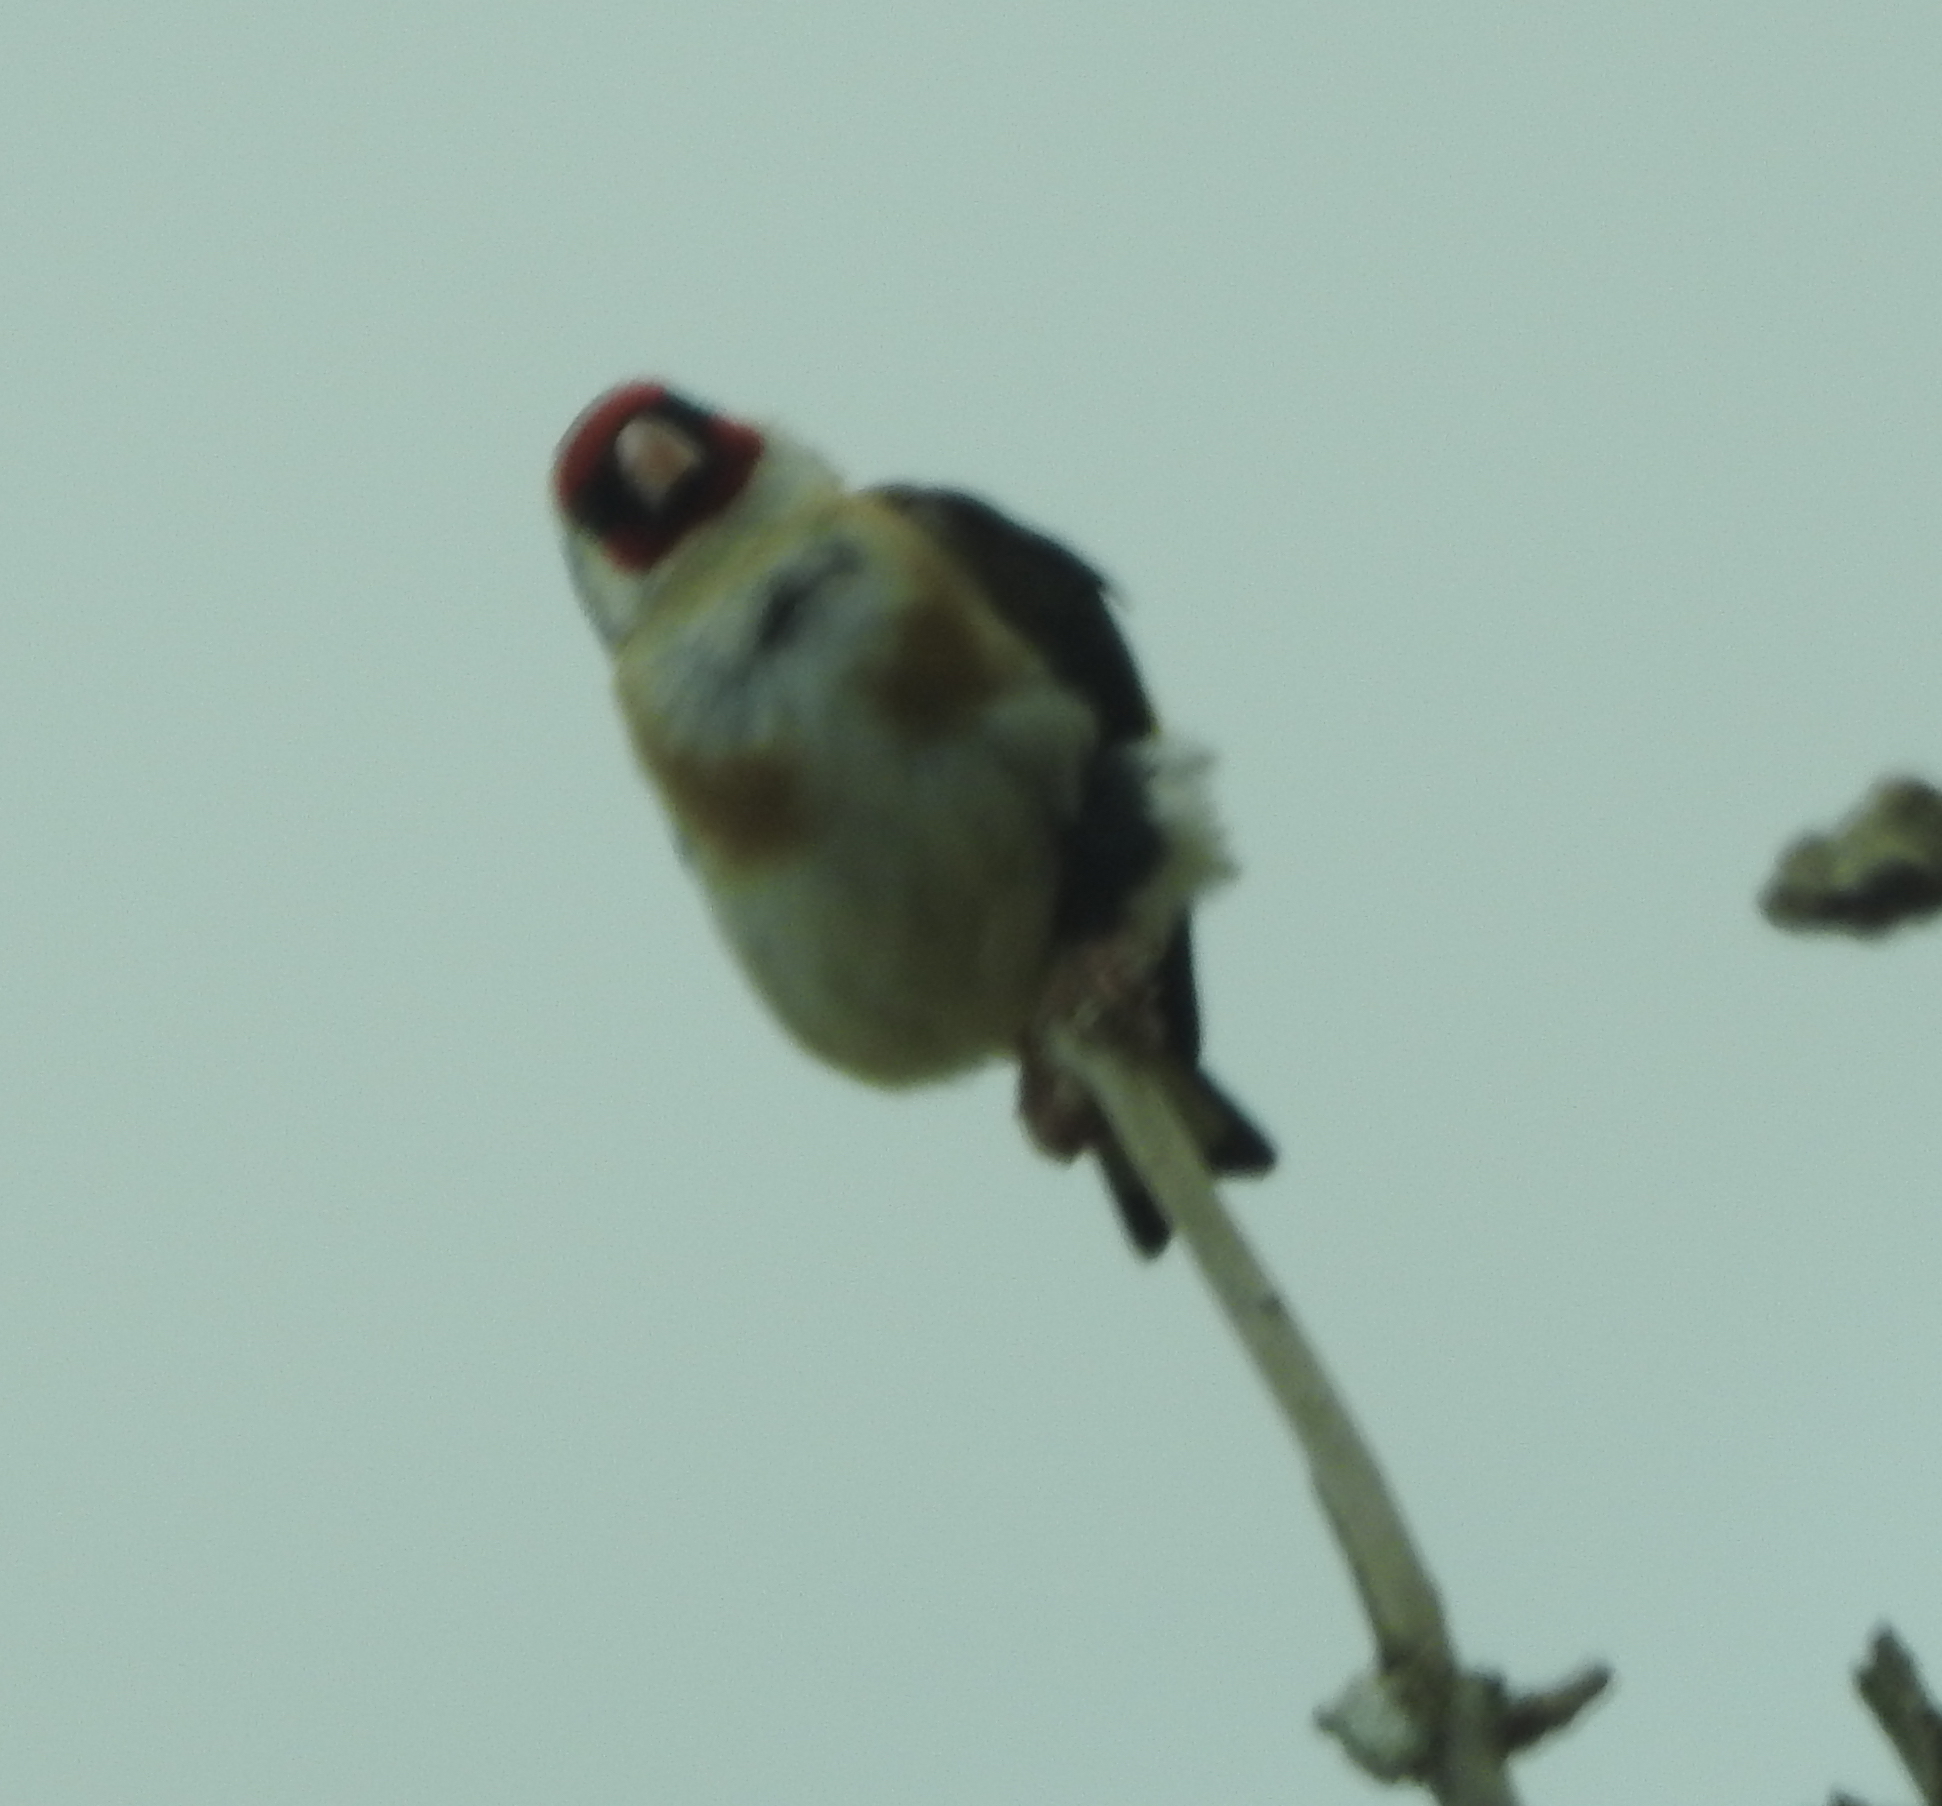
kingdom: Animalia
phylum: Chordata
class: Aves
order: Passeriformes
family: Fringillidae
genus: Carduelis
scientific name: Carduelis carduelis
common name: European goldfinch
